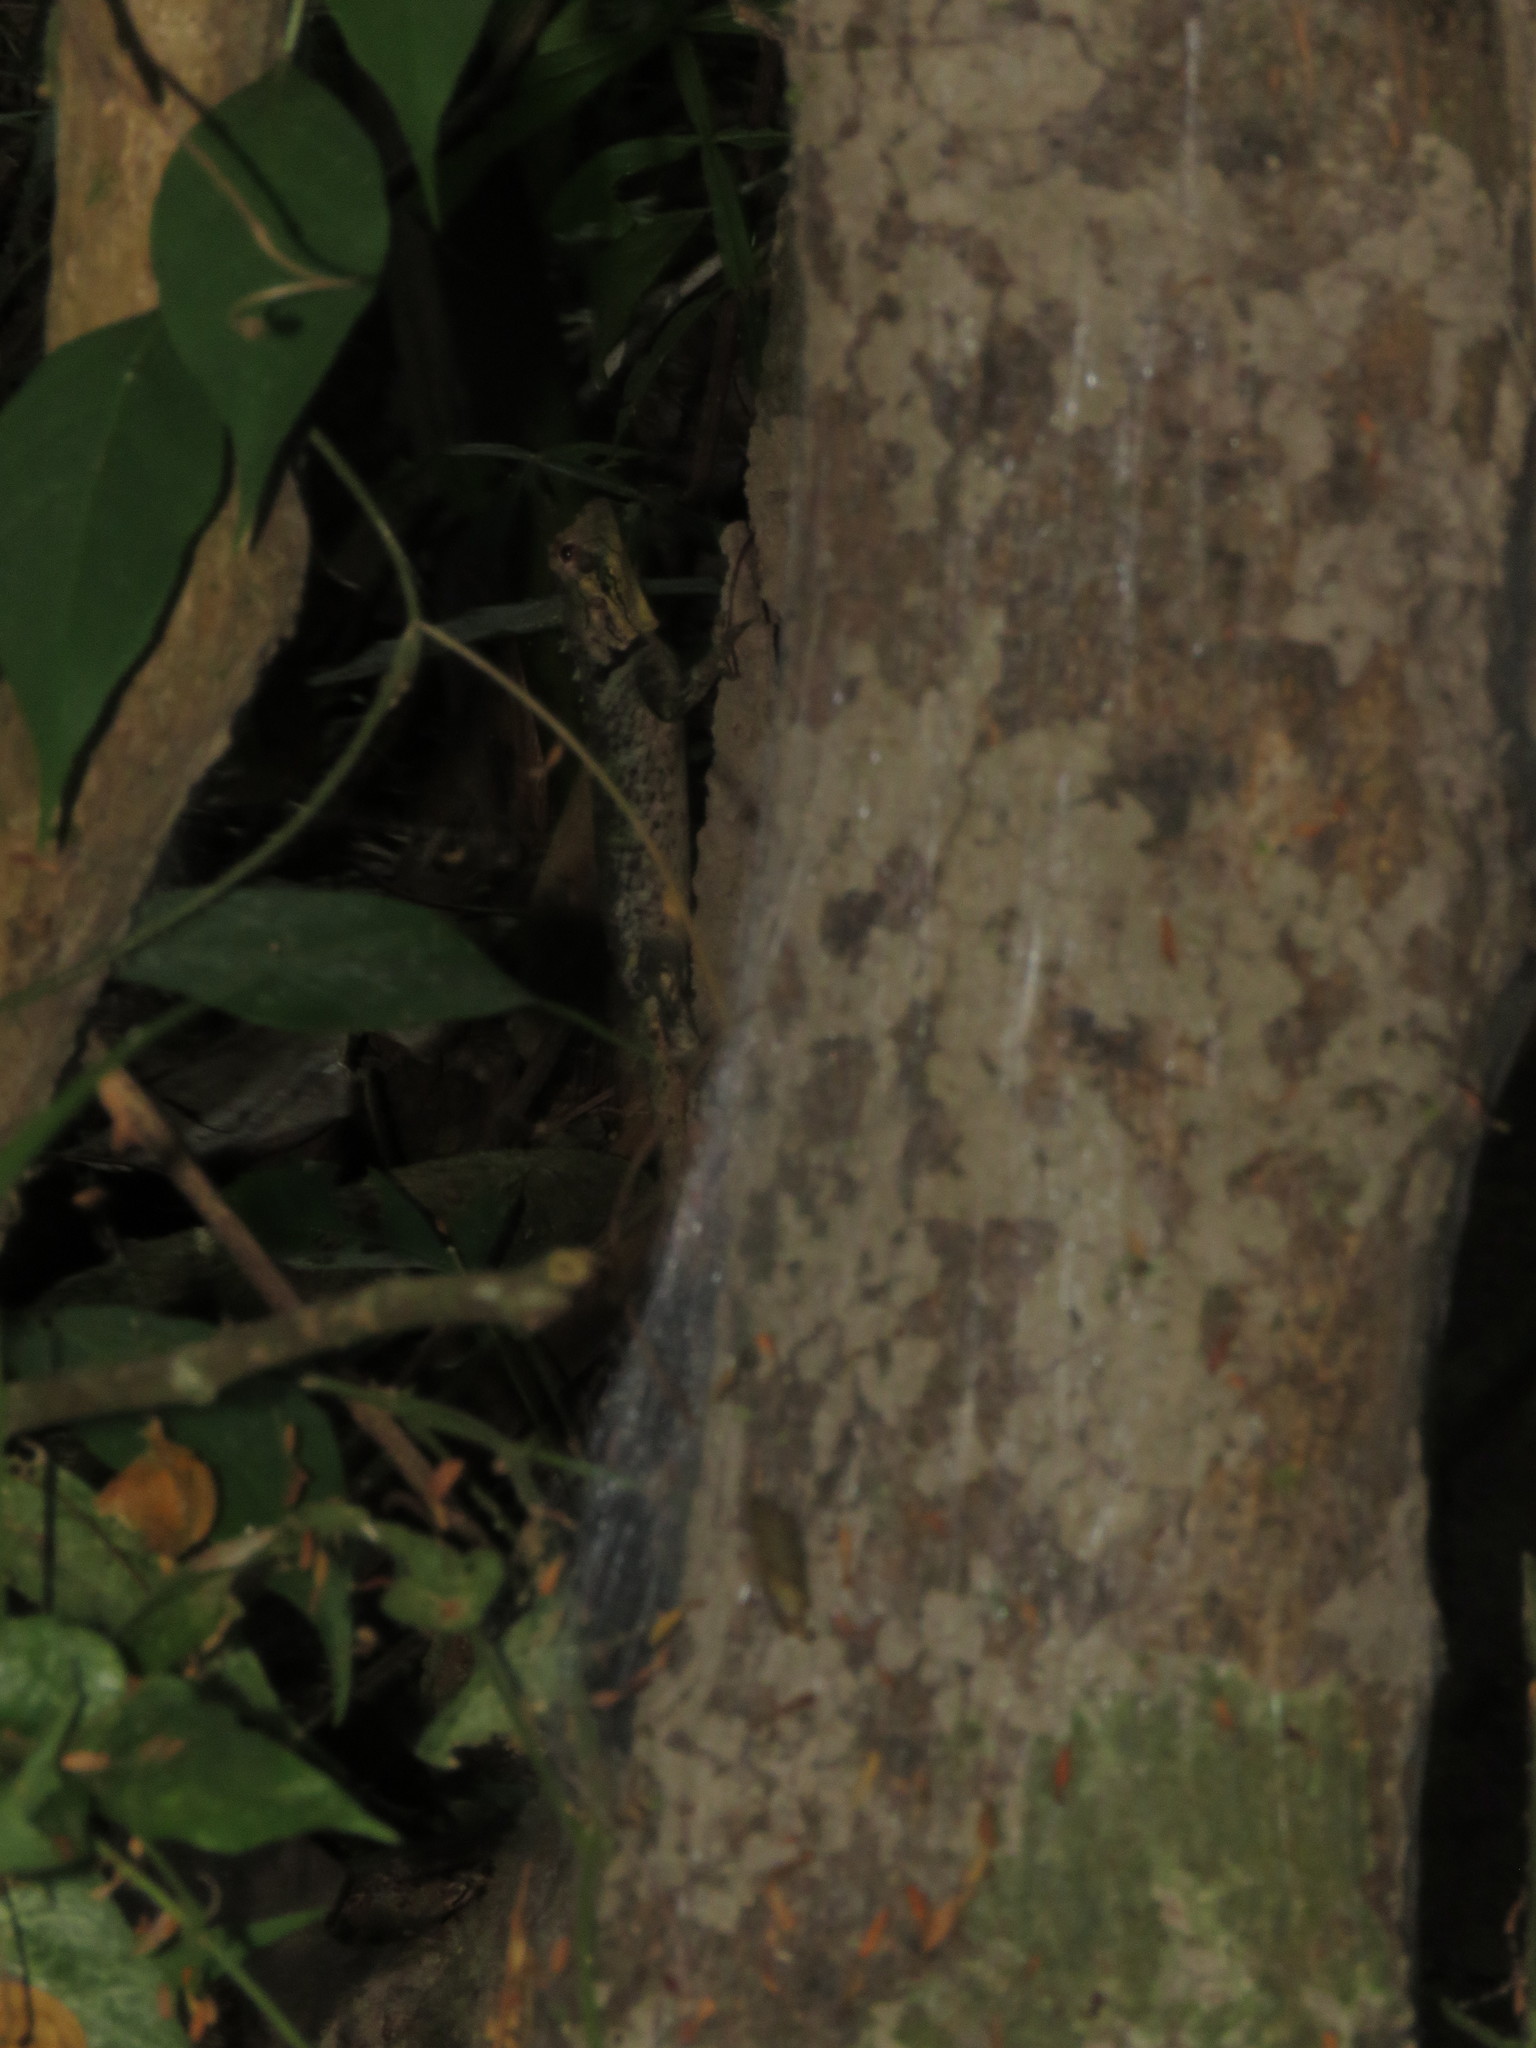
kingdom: Animalia
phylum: Chordata
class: Squamata
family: Tropiduridae
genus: Plica
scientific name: Plica umbra
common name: Harlequin racerunner
